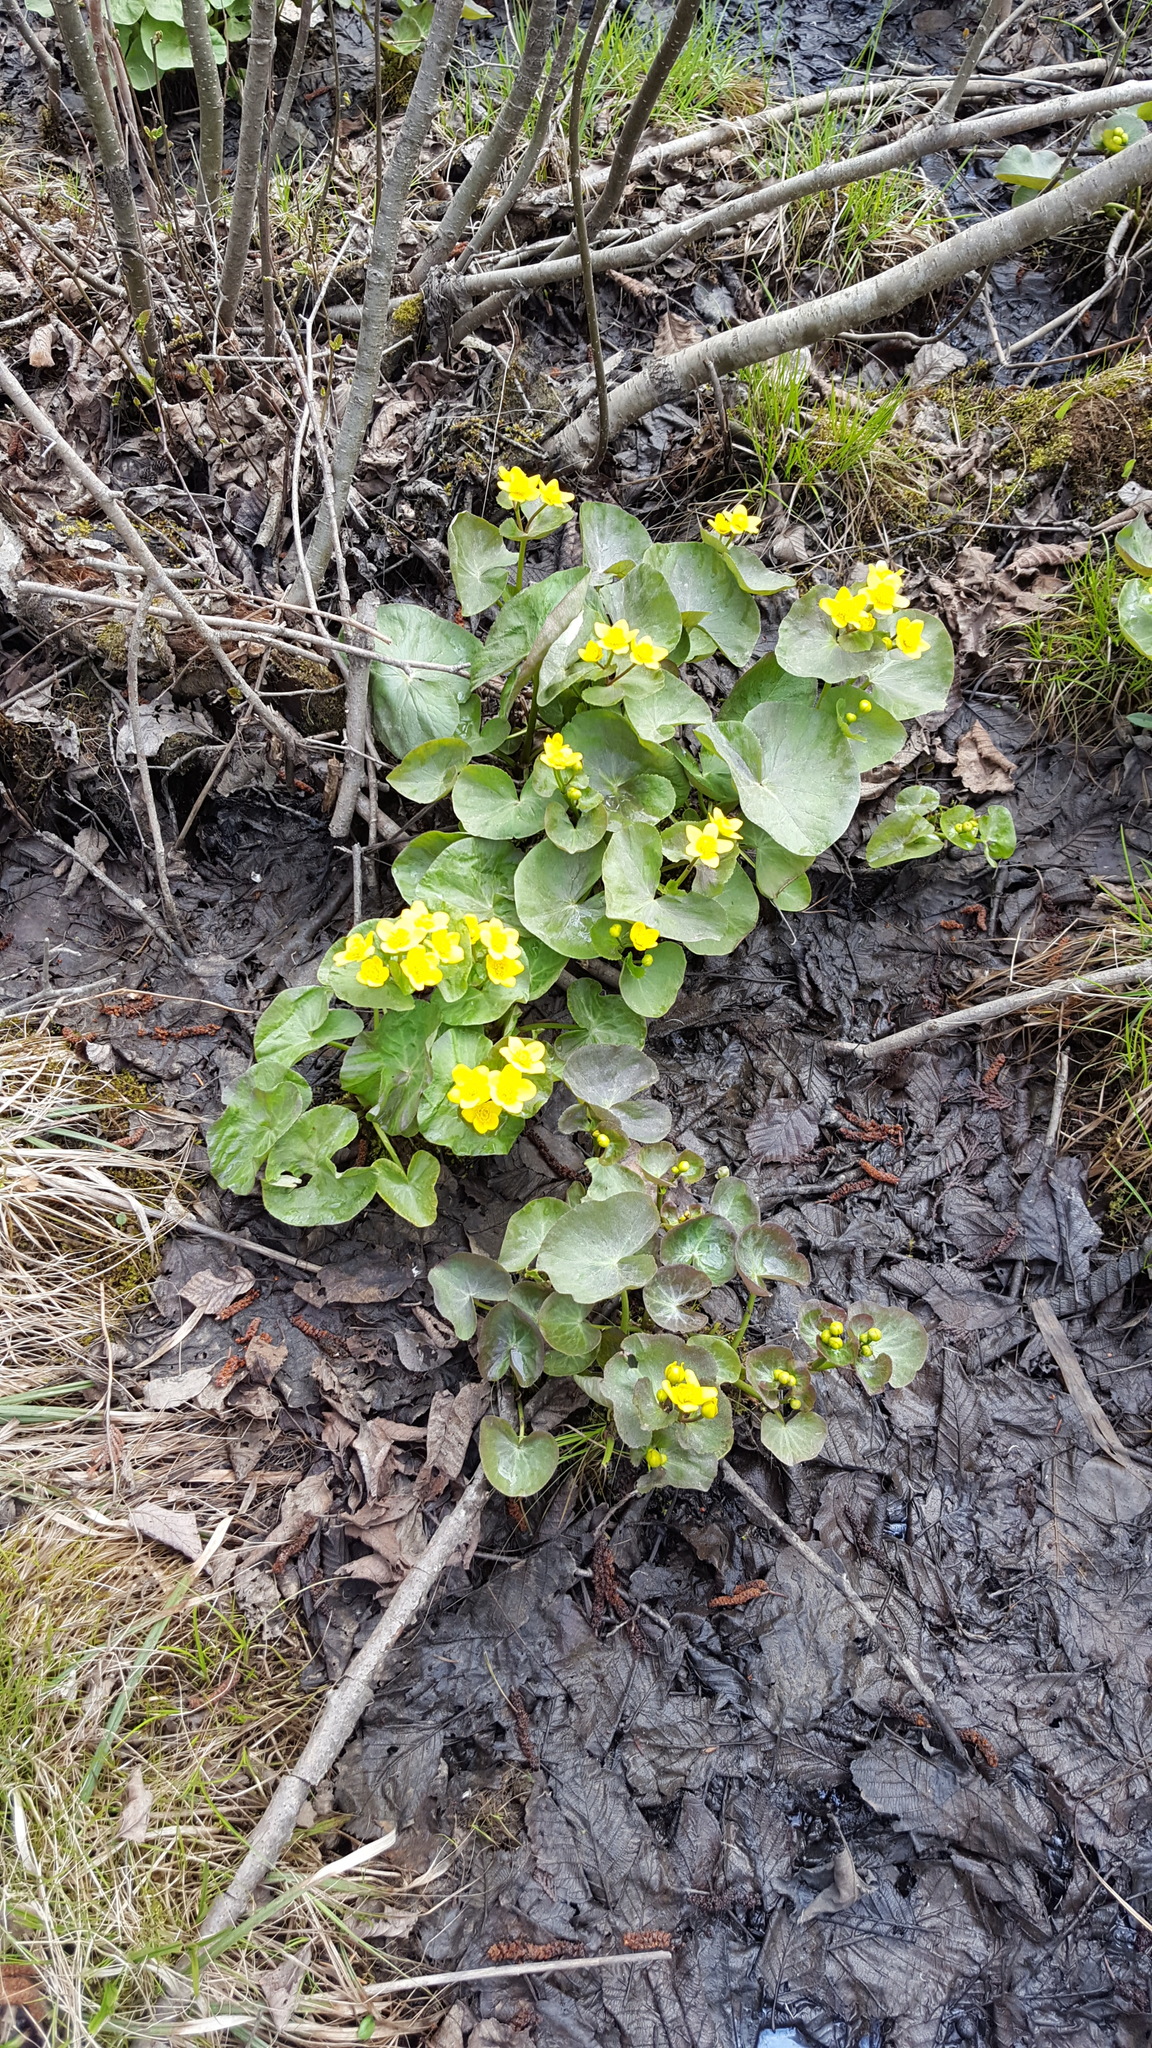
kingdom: Plantae
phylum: Tracheophyta
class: Magnoliopsida
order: Ranunculales
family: Ranunculaceae
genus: Caltha
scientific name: Caltha palustris
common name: Marsh marigold
